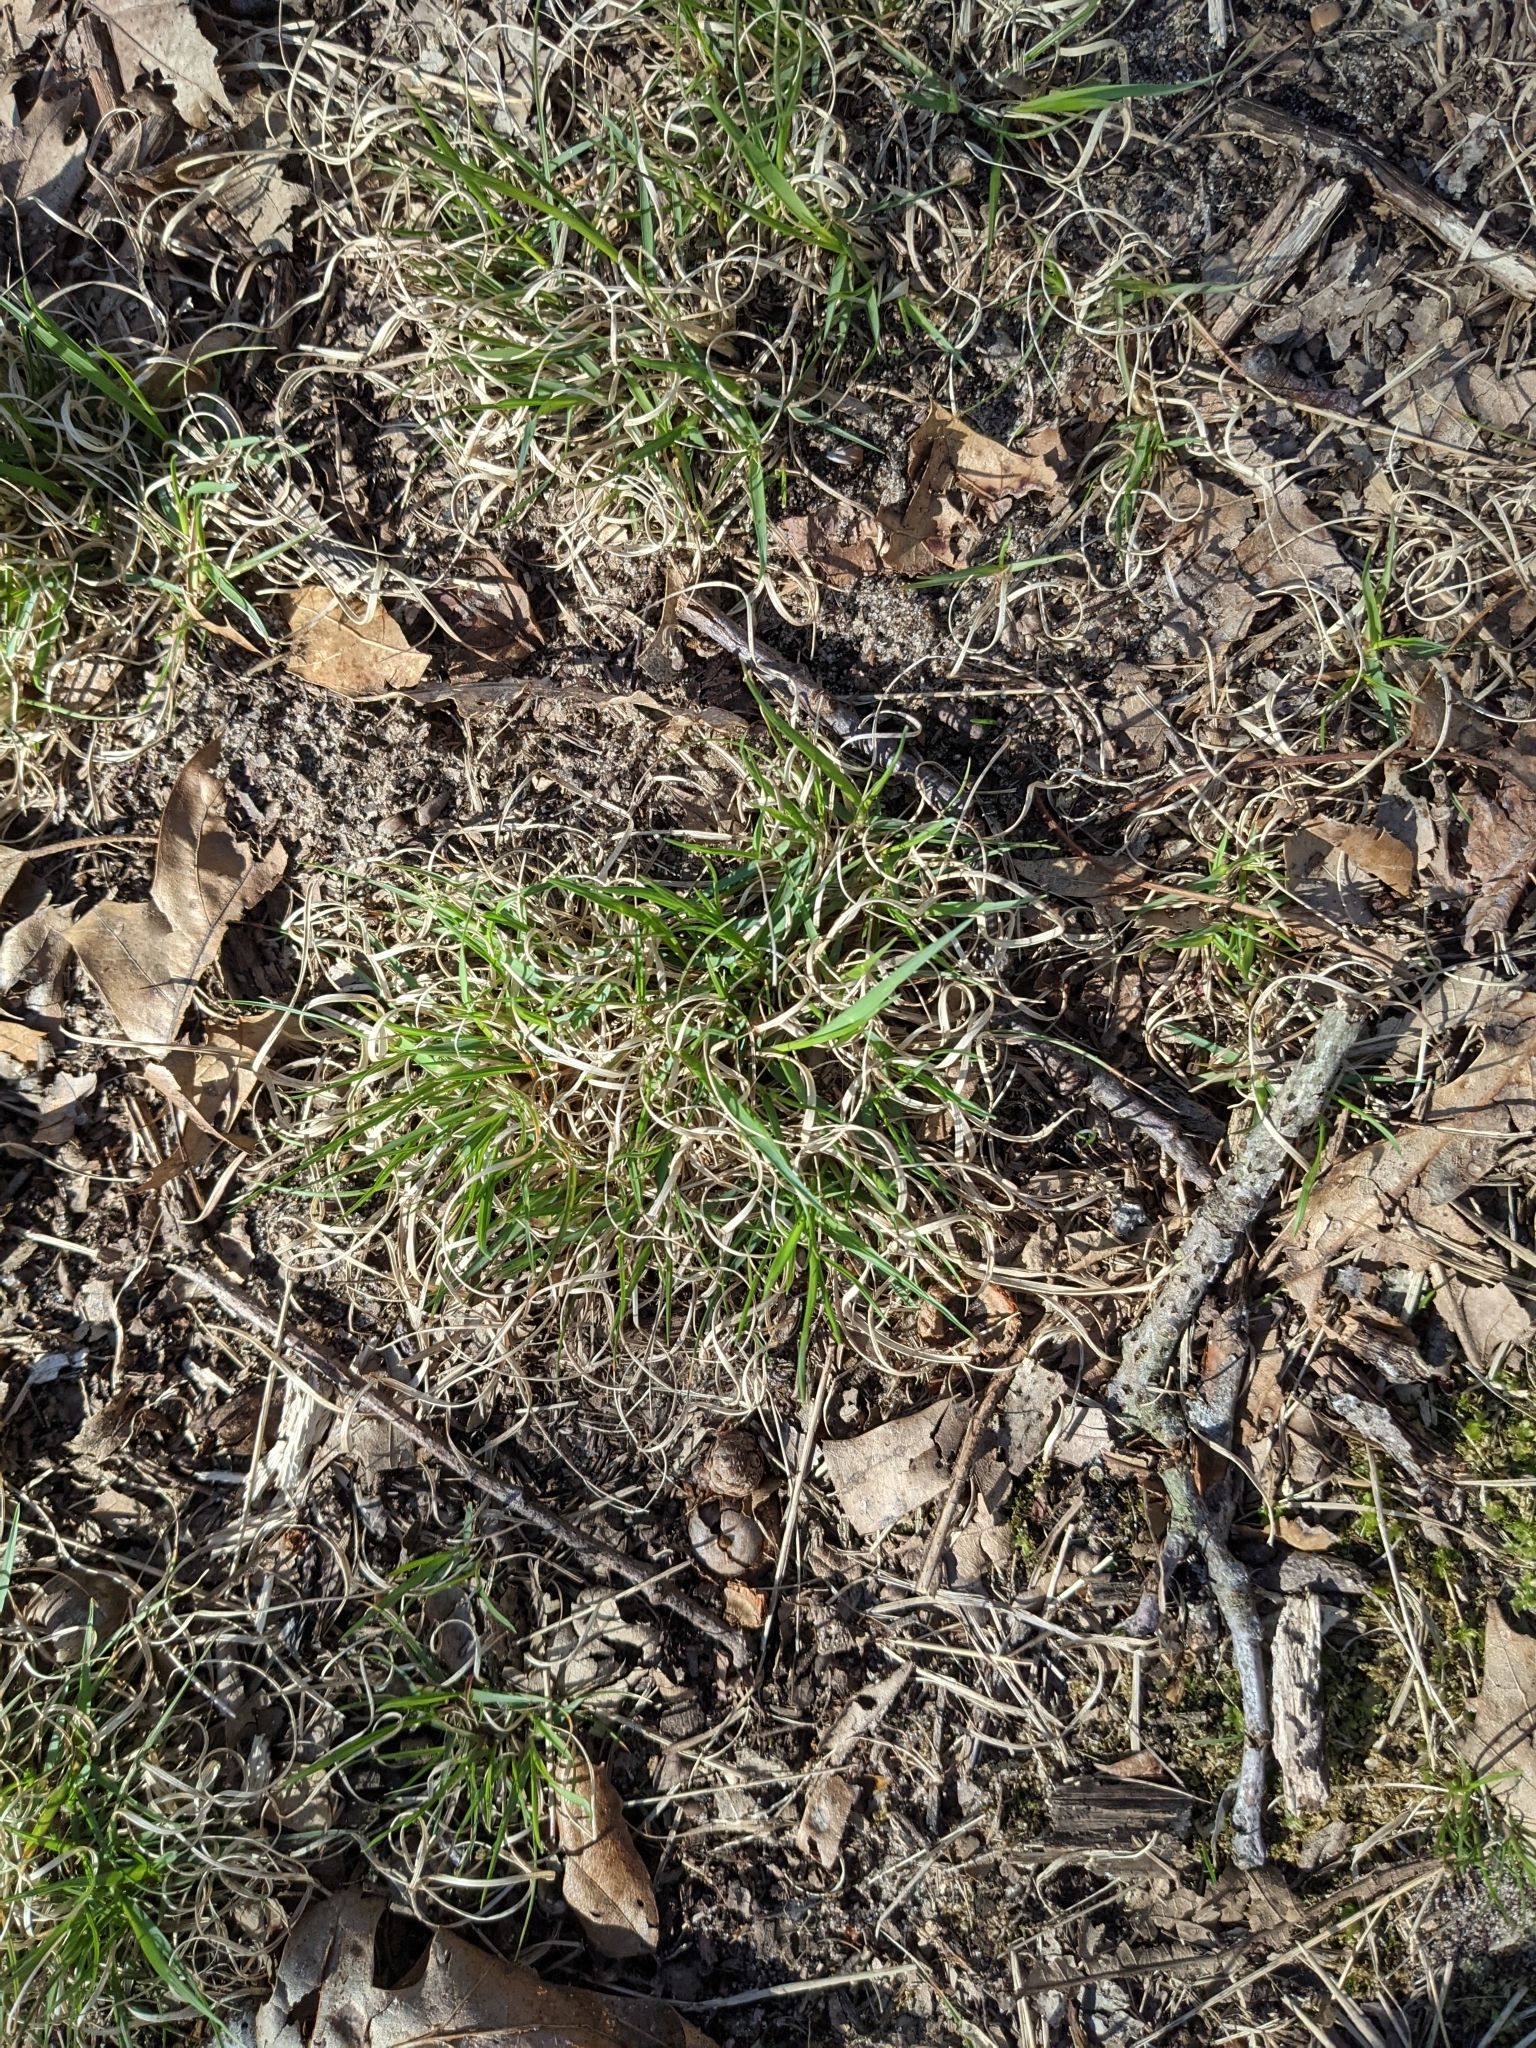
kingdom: Plantae
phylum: Tracheophyta
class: Liliopsida
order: Poales
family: Poaceae
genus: Danthonia
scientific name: Danthonia spicata
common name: Common wild oatgrass
